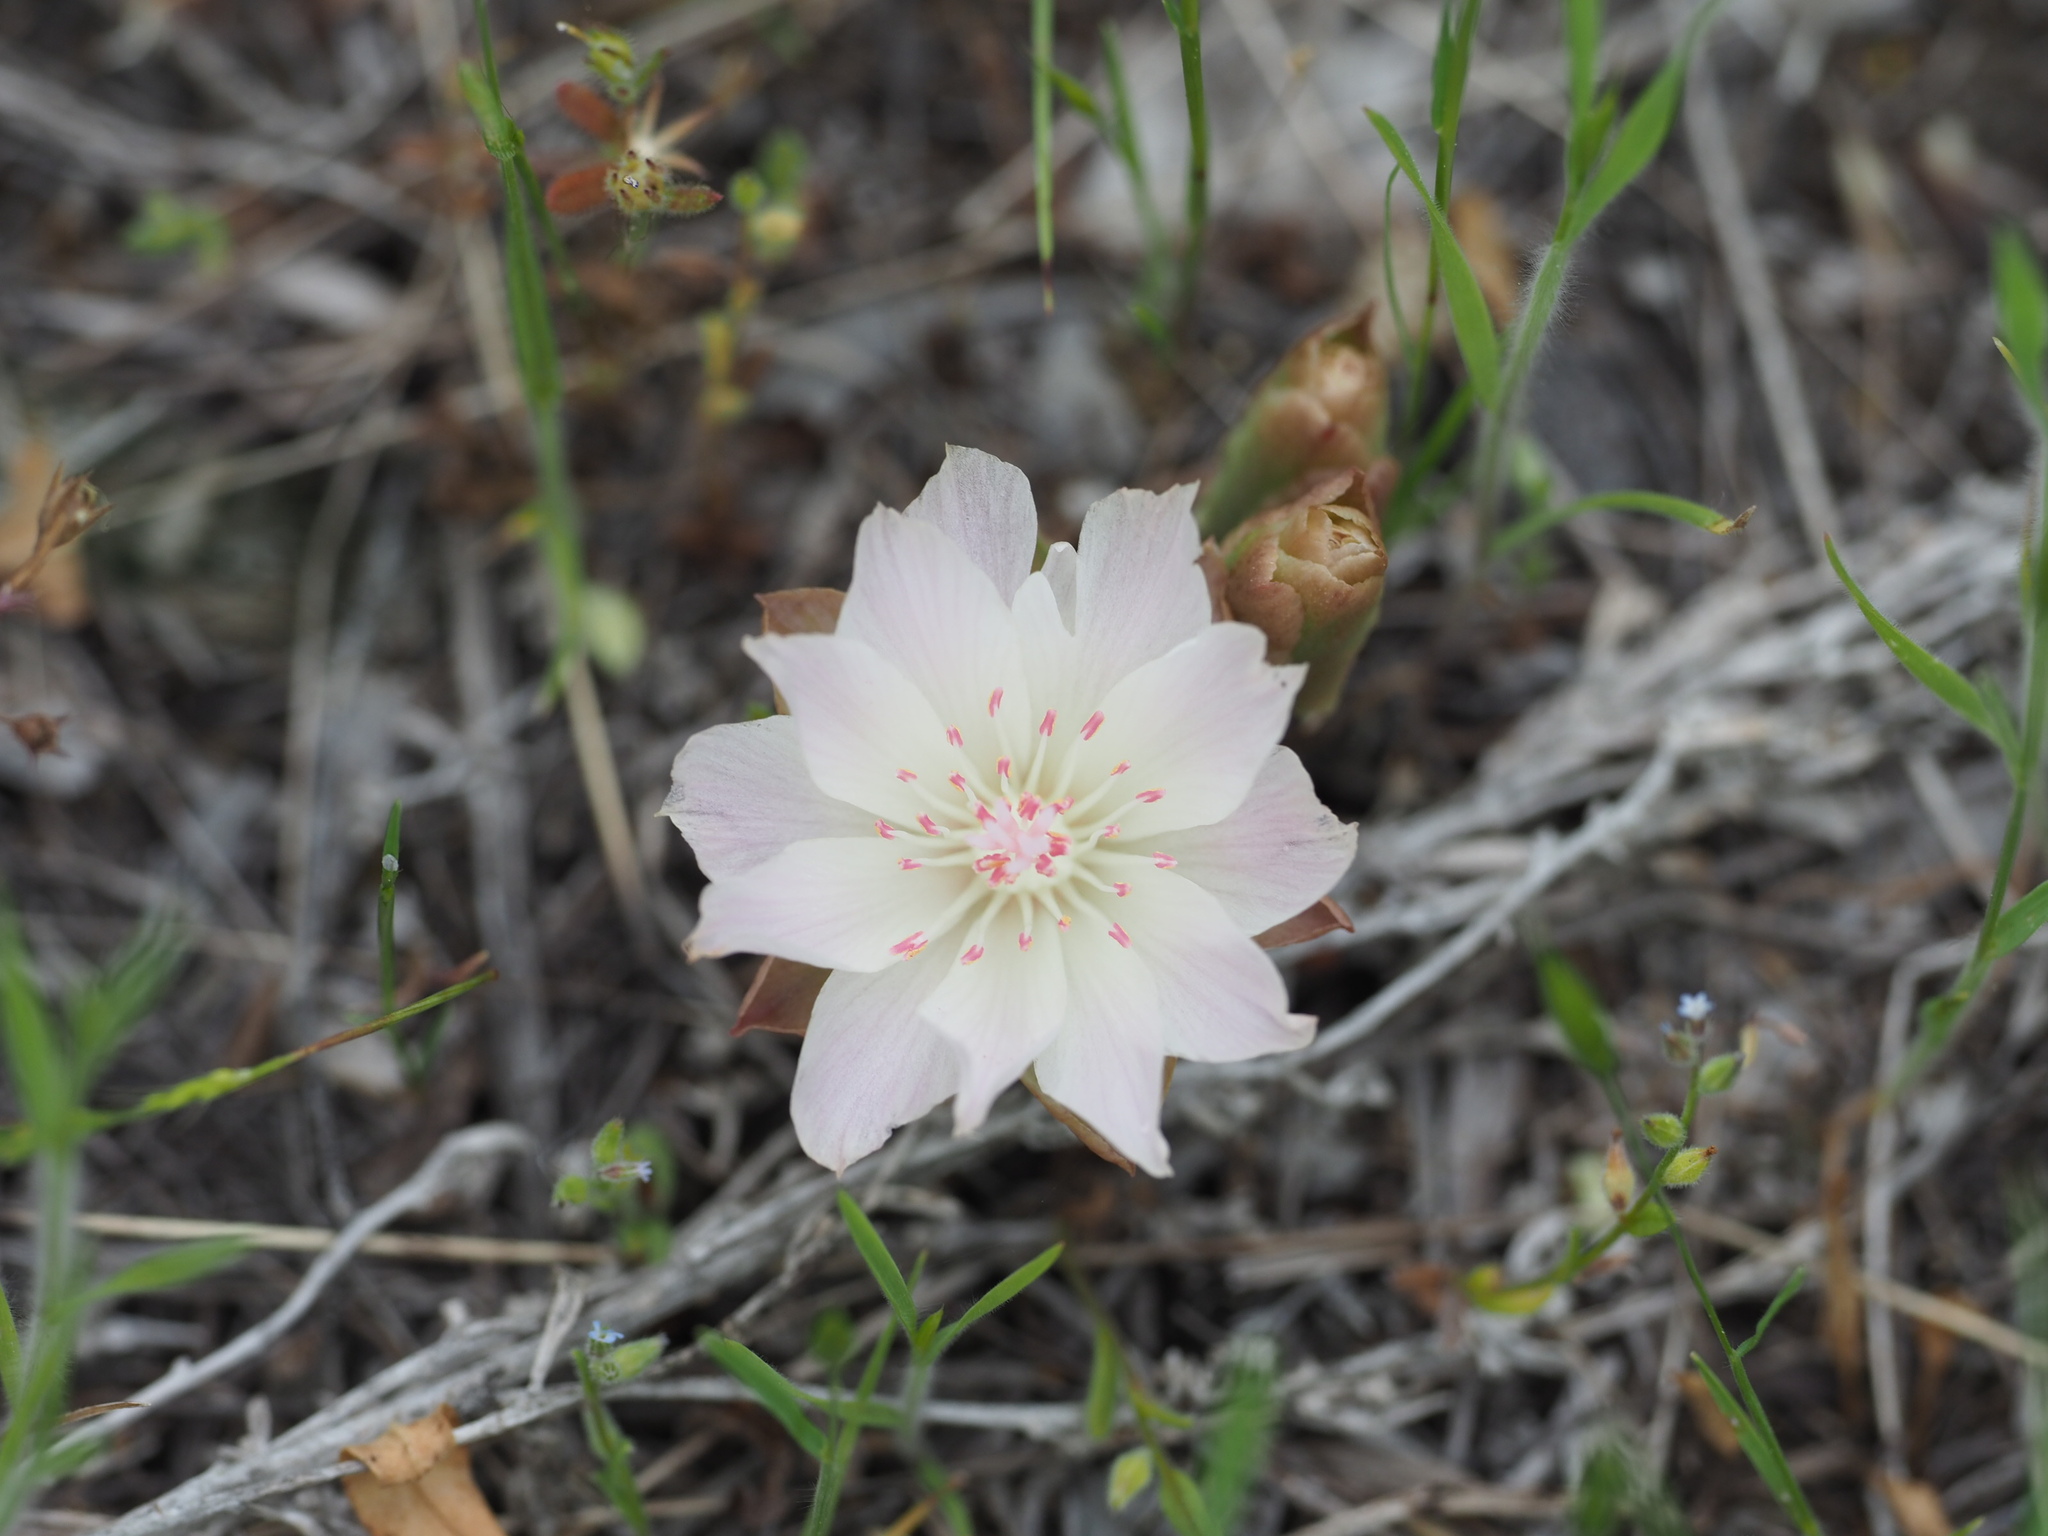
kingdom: Plantae
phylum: Tracheophyta
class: Magnoliopsida
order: Caryophyllales
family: Montiaceae
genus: Lewisia
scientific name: Lewisia rediviva
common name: Bitter-root
